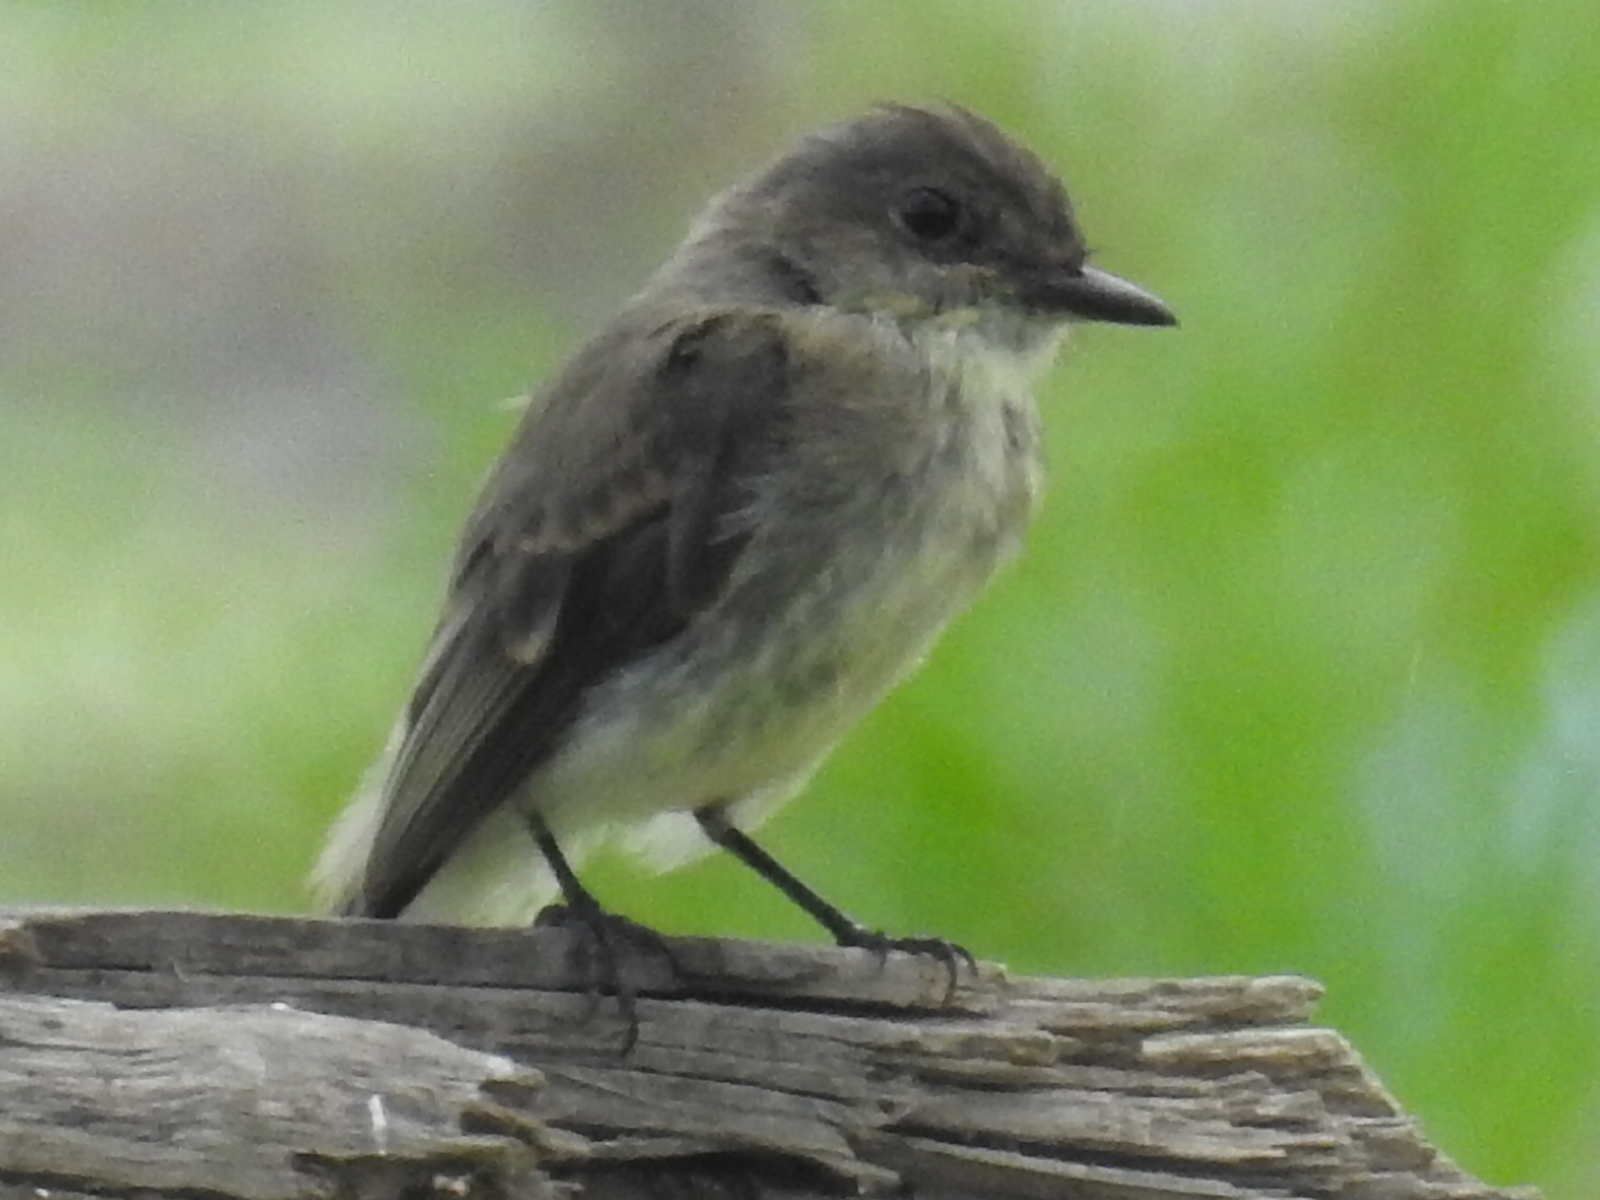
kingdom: Animalia
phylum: Chordata
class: Aves
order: Passeriformes
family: Tyrannidae
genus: Sayornis
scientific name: Sayornis phoebe
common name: Eastern phoebe
